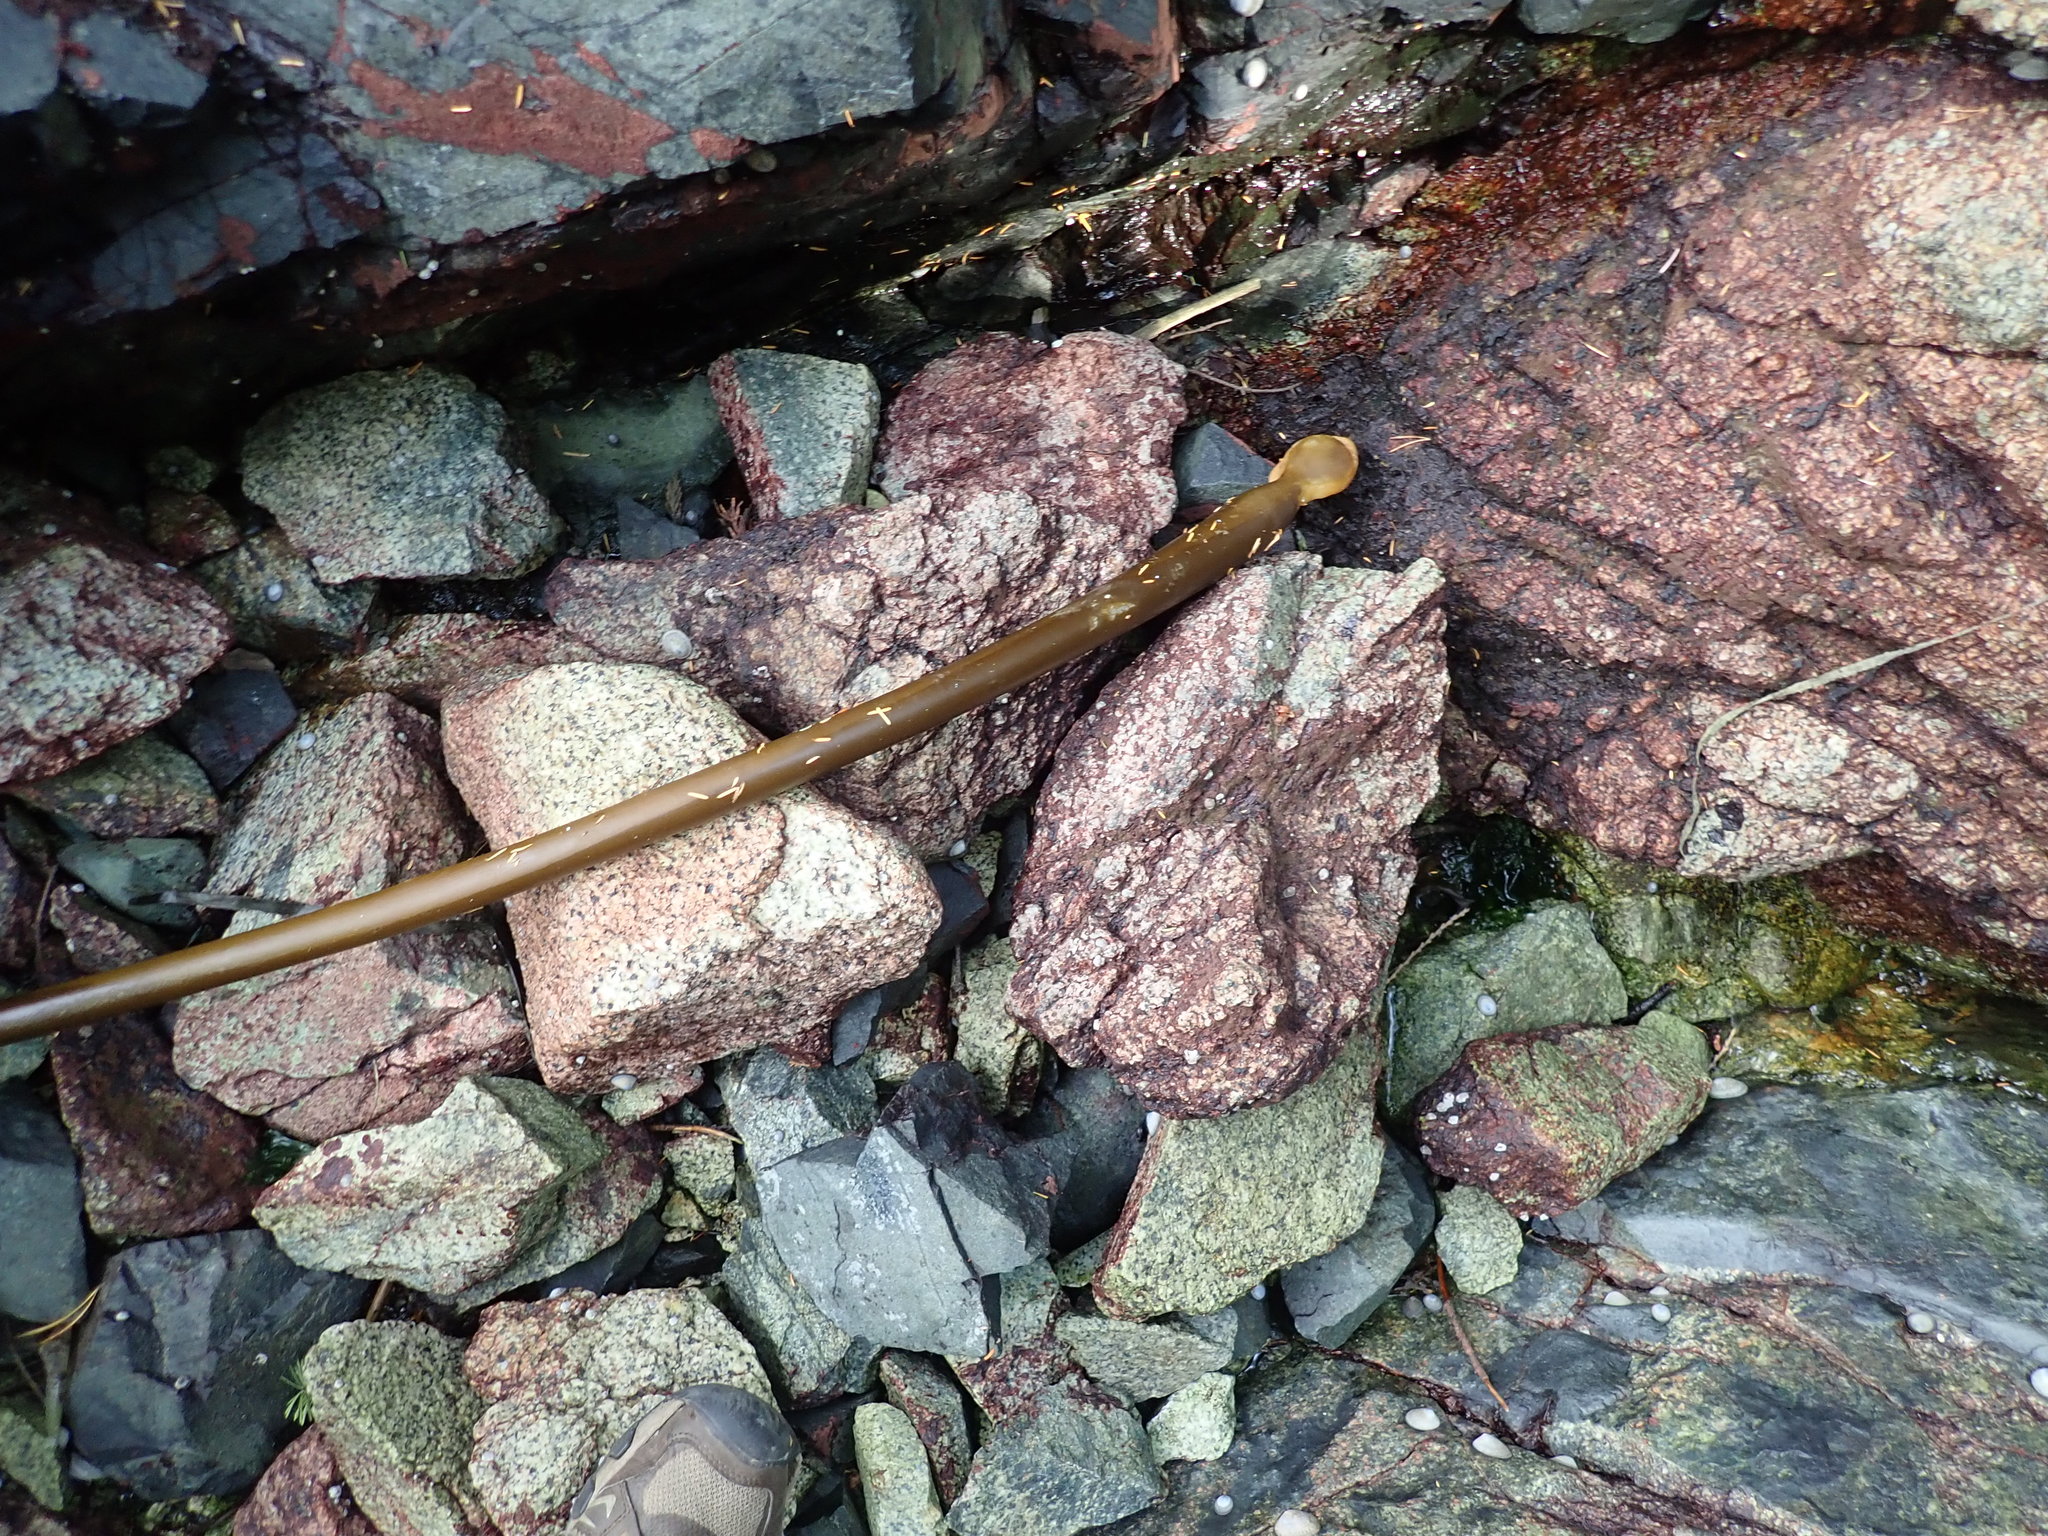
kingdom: Chromista
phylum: Ochrophyta
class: Phaeophyceae
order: Laminariales
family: Laminariaceae
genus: Nereocystis
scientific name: Nereocystis luetkeana
